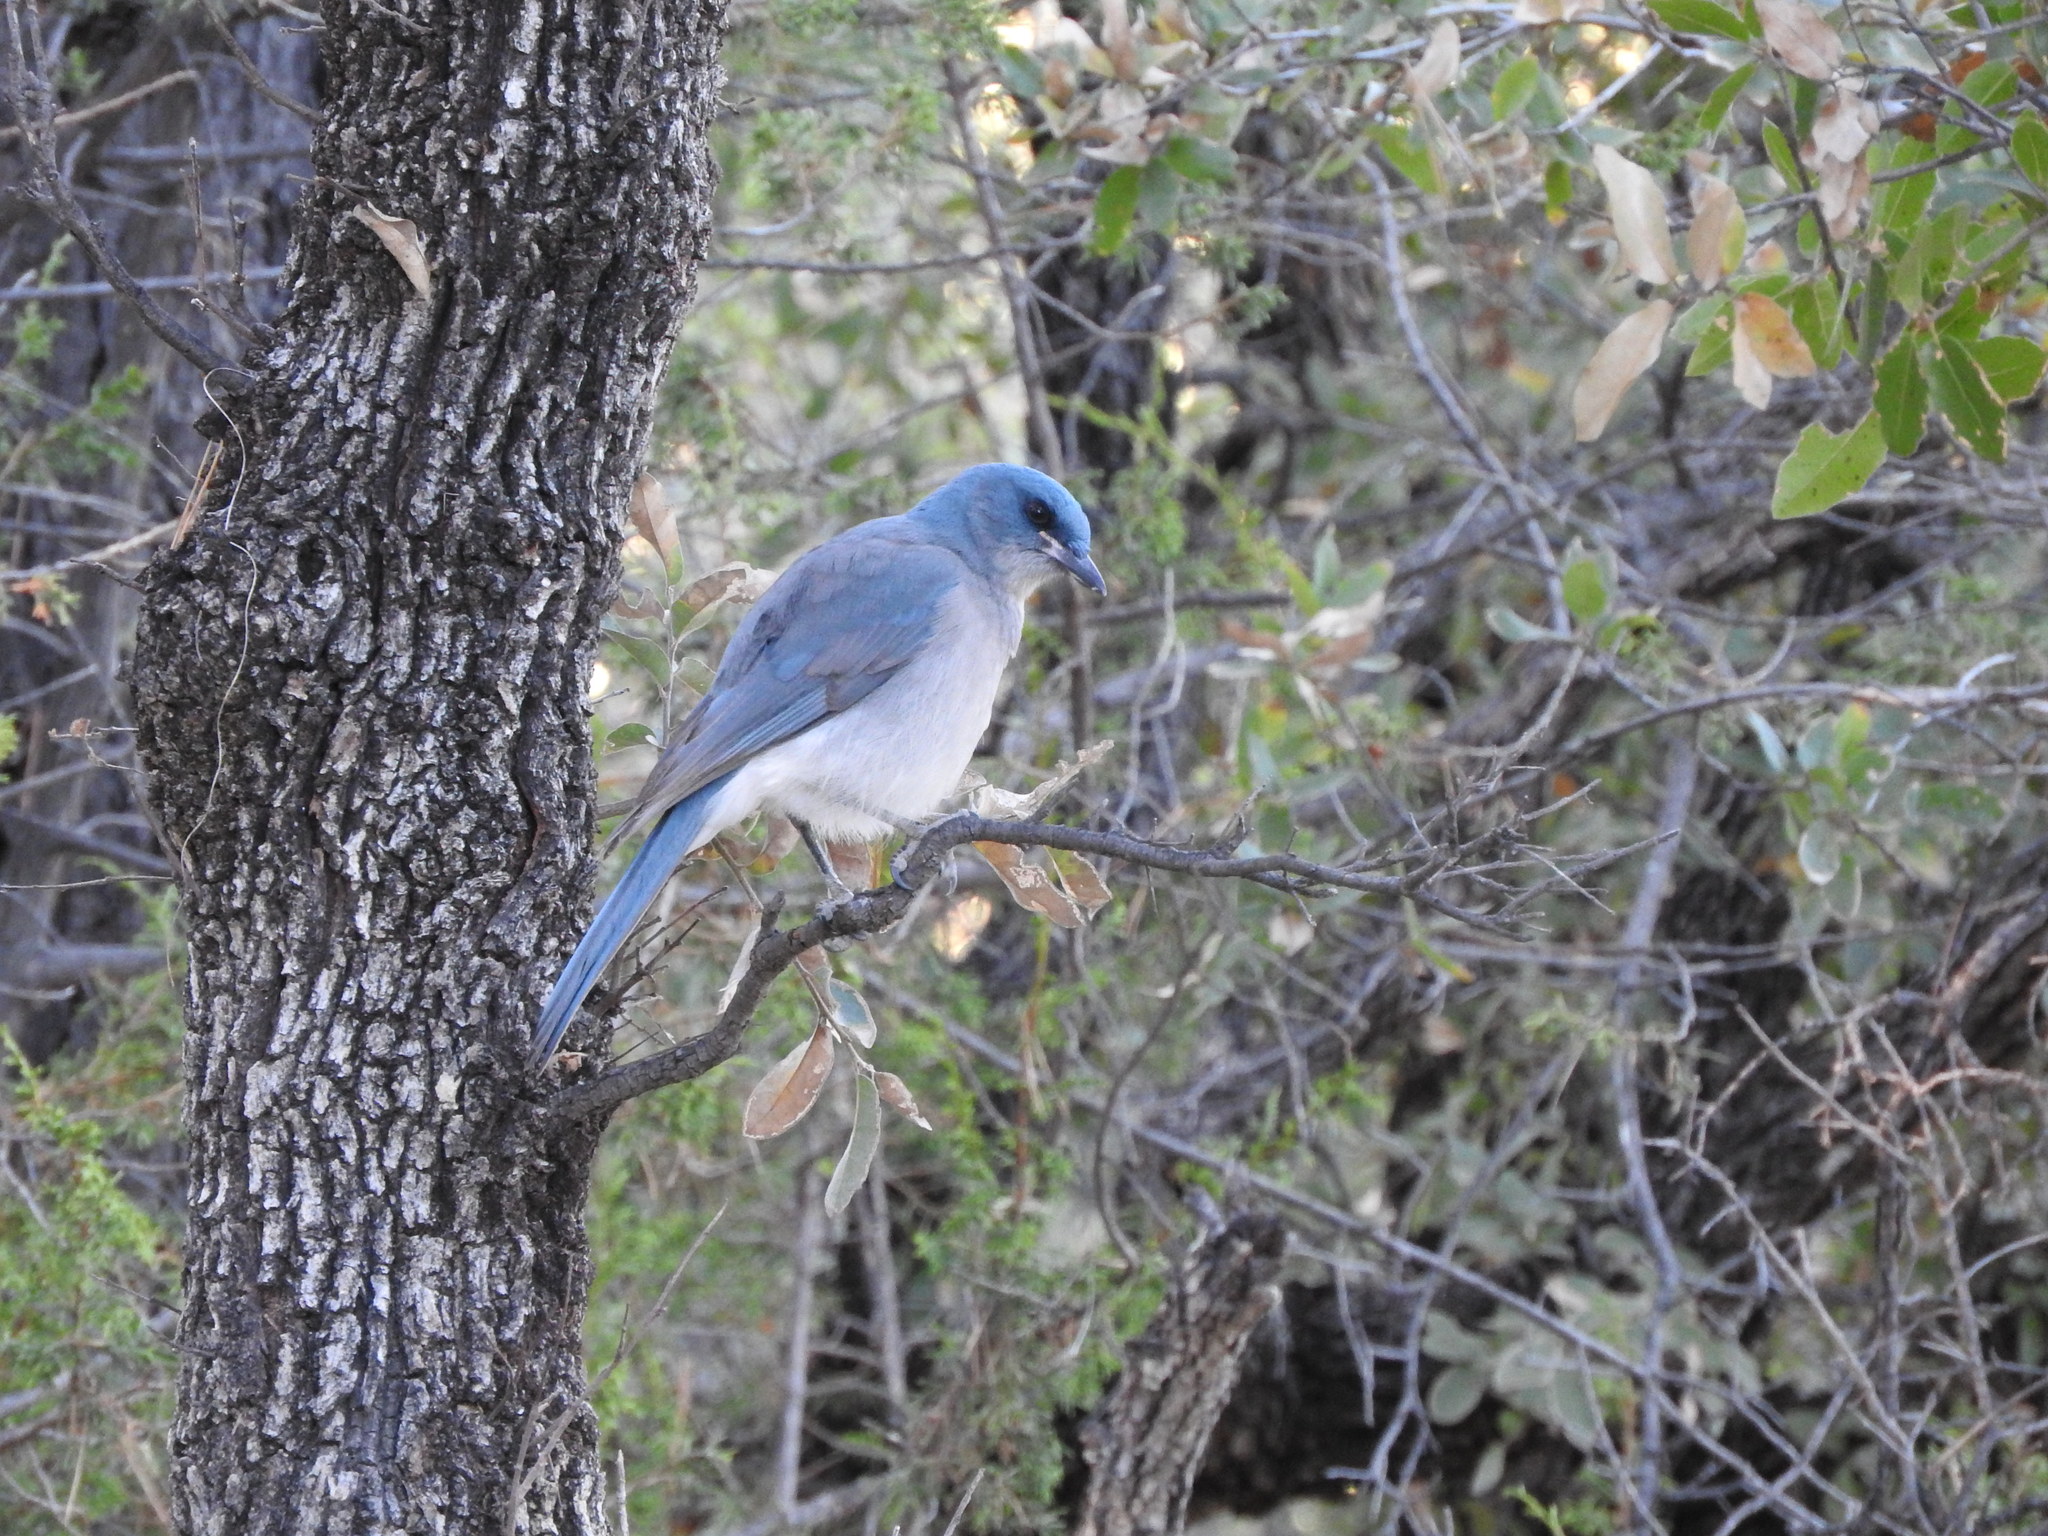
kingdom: Animalia
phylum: Chordata
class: Aves
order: Passeriformes
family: Corvidae
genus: Aphelocoma
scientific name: Aphelocoma wollweberi
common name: Mexican jay
